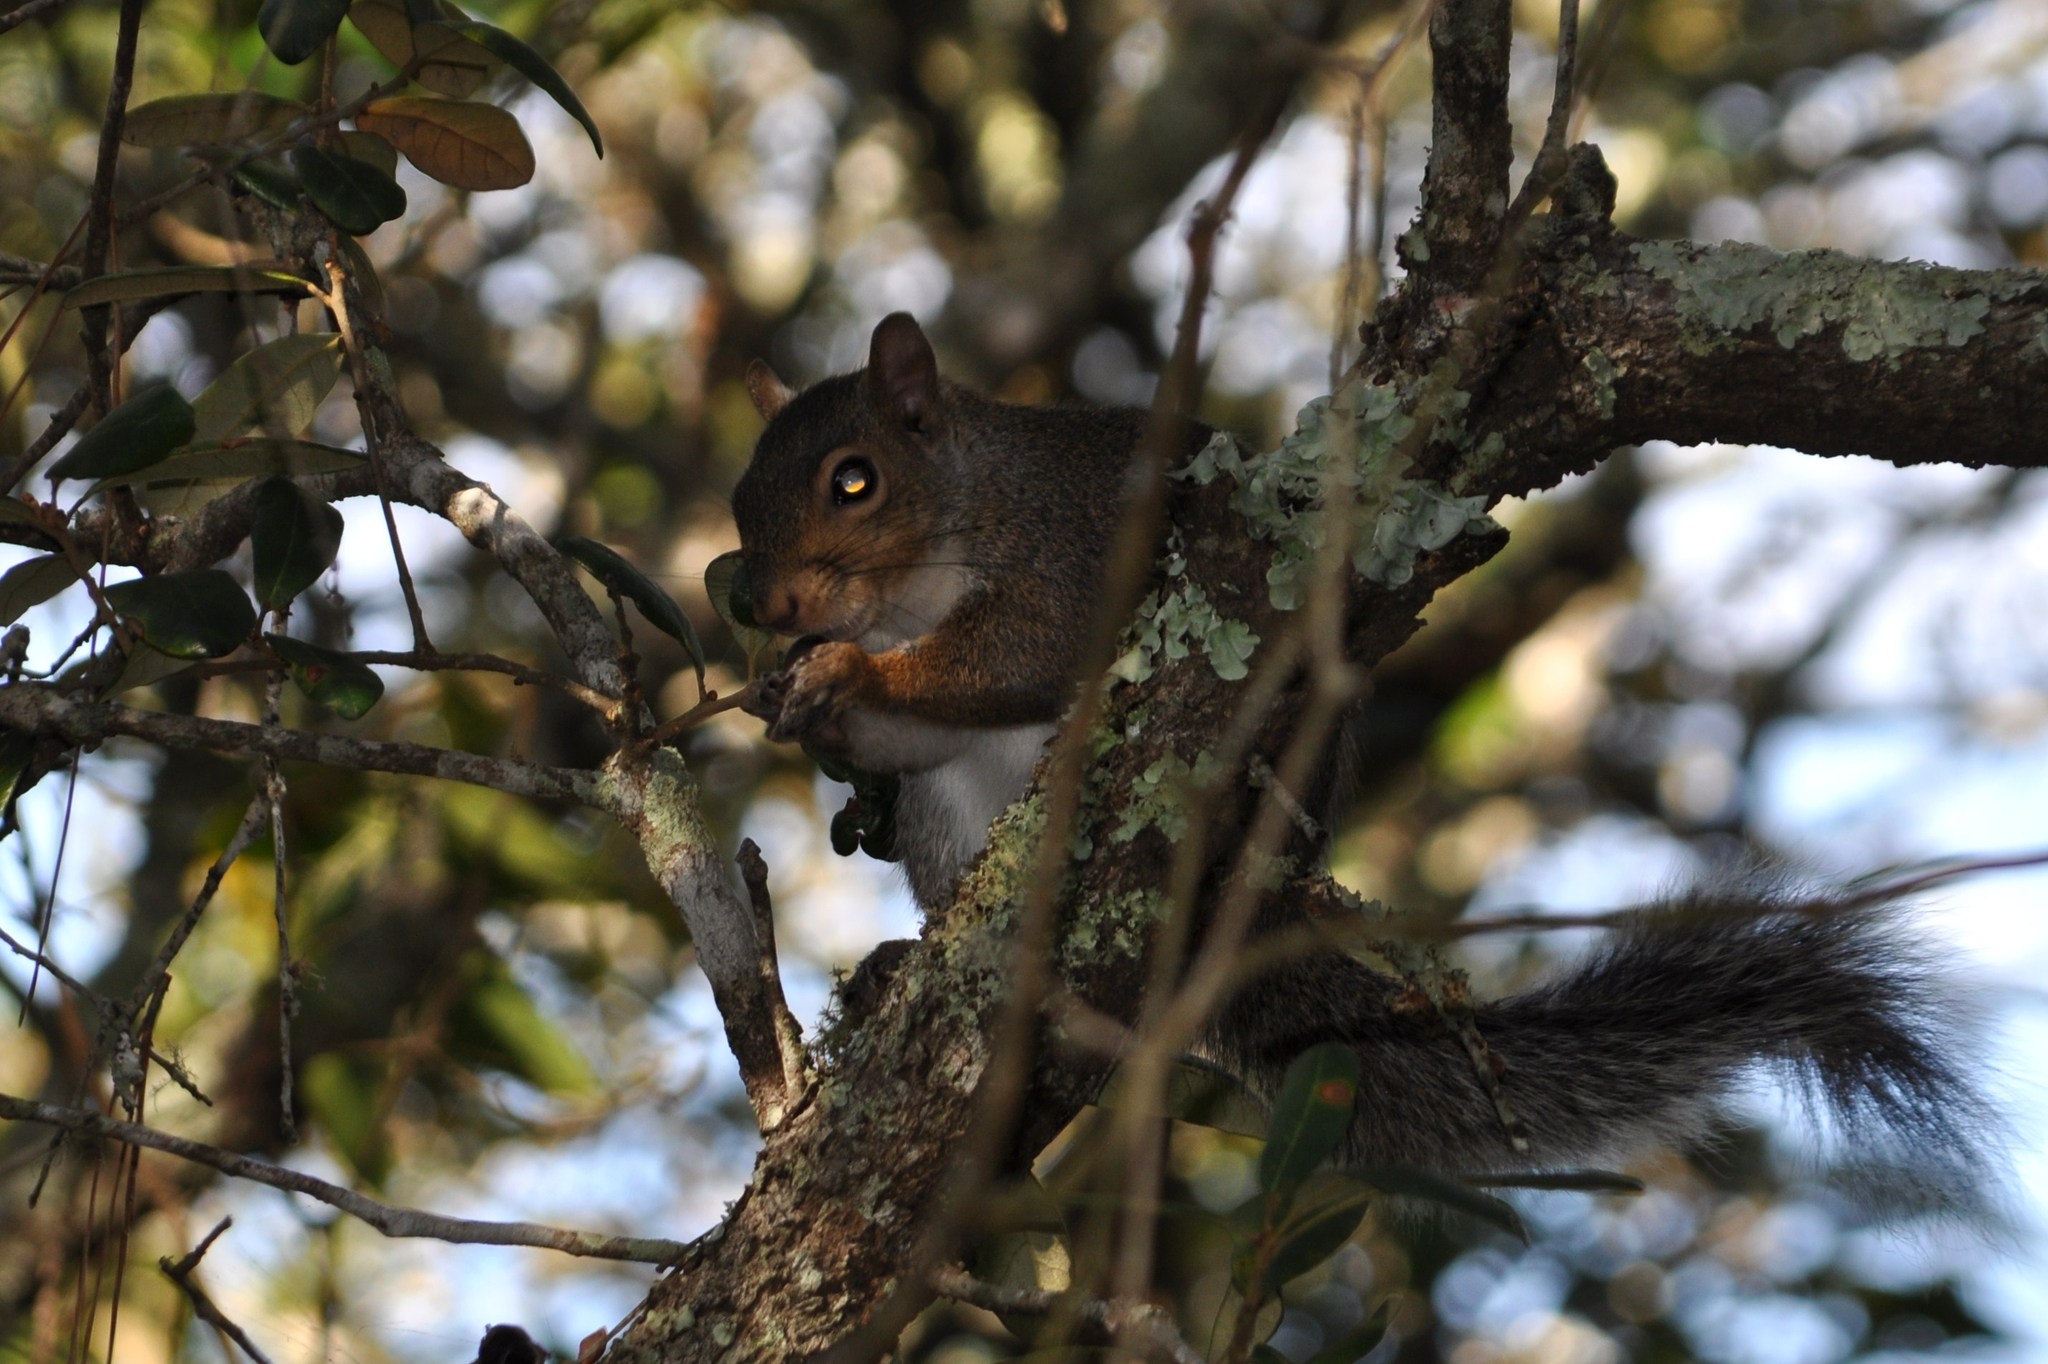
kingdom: Animalia
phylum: Chordata
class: Mammalia
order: Rodentia
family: Sciuridae
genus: Sciurus
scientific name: Sciurus carolinensis
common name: Eastern gray squirrel
